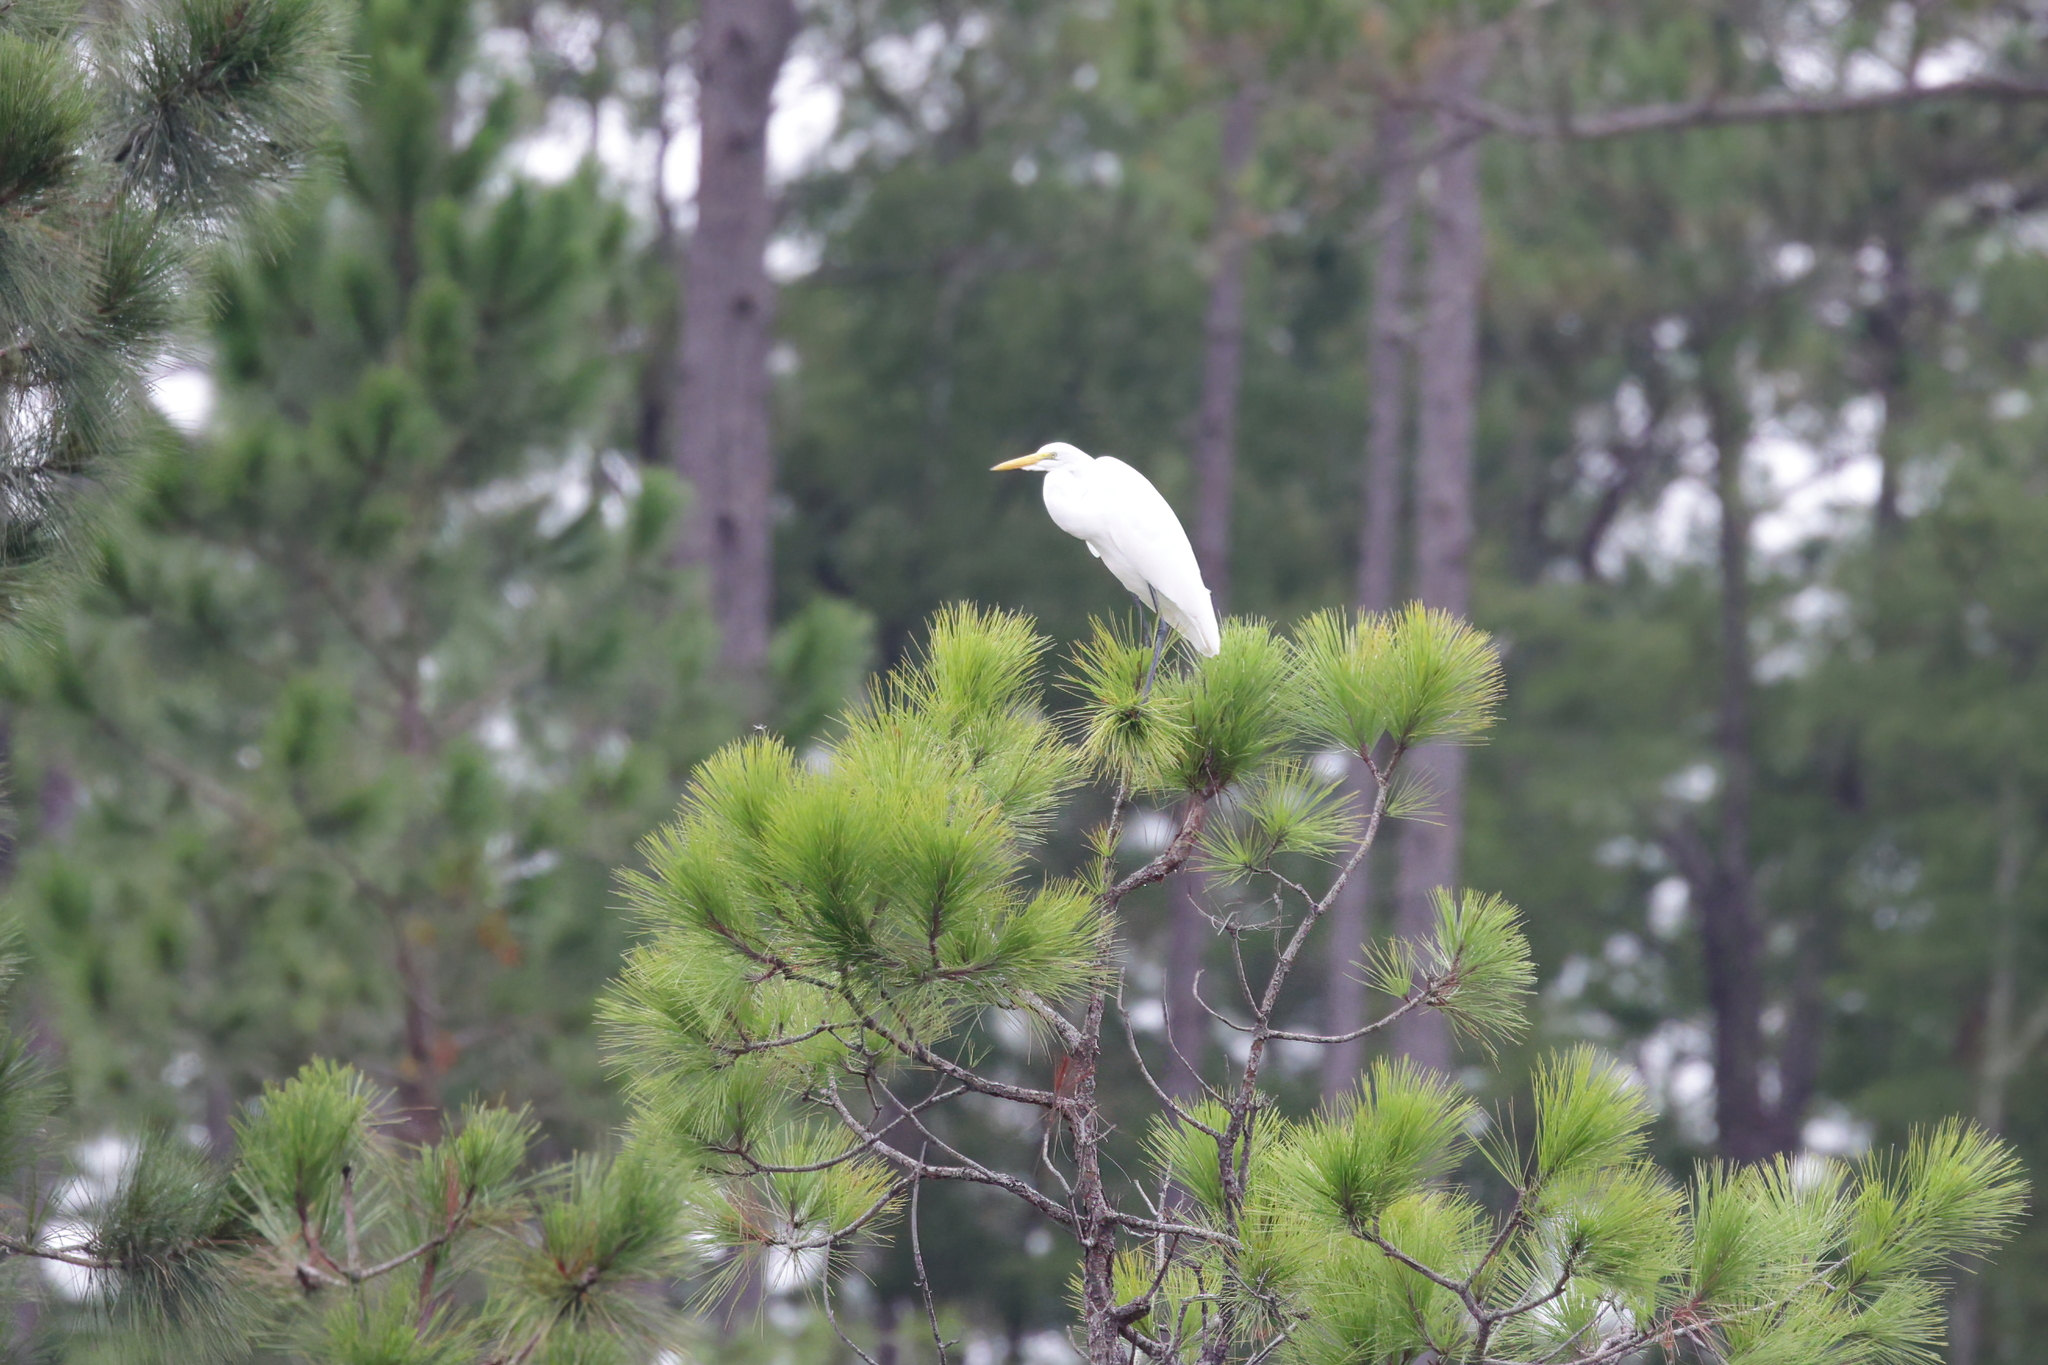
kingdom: Animalia
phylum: Chordata
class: Aves
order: Pelecaniformes
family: Ardeidae
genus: Ardea
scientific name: Ardea alba
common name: Great egret
